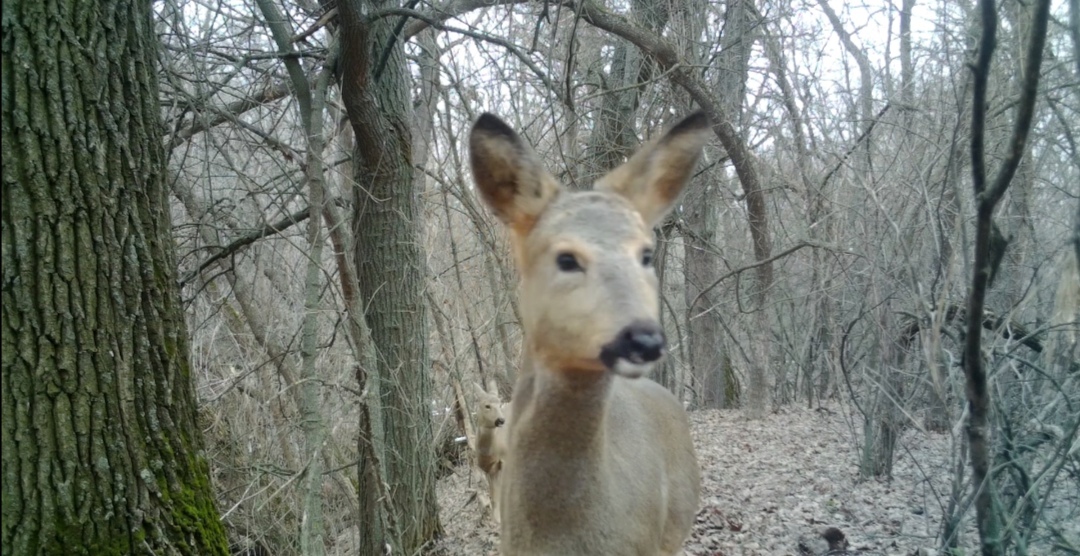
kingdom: Animalia
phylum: Chordata
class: Mammalia
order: Artiodactyla
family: Cervidae
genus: Capreolus
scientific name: Capreolus pygargus
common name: Siberian roe
